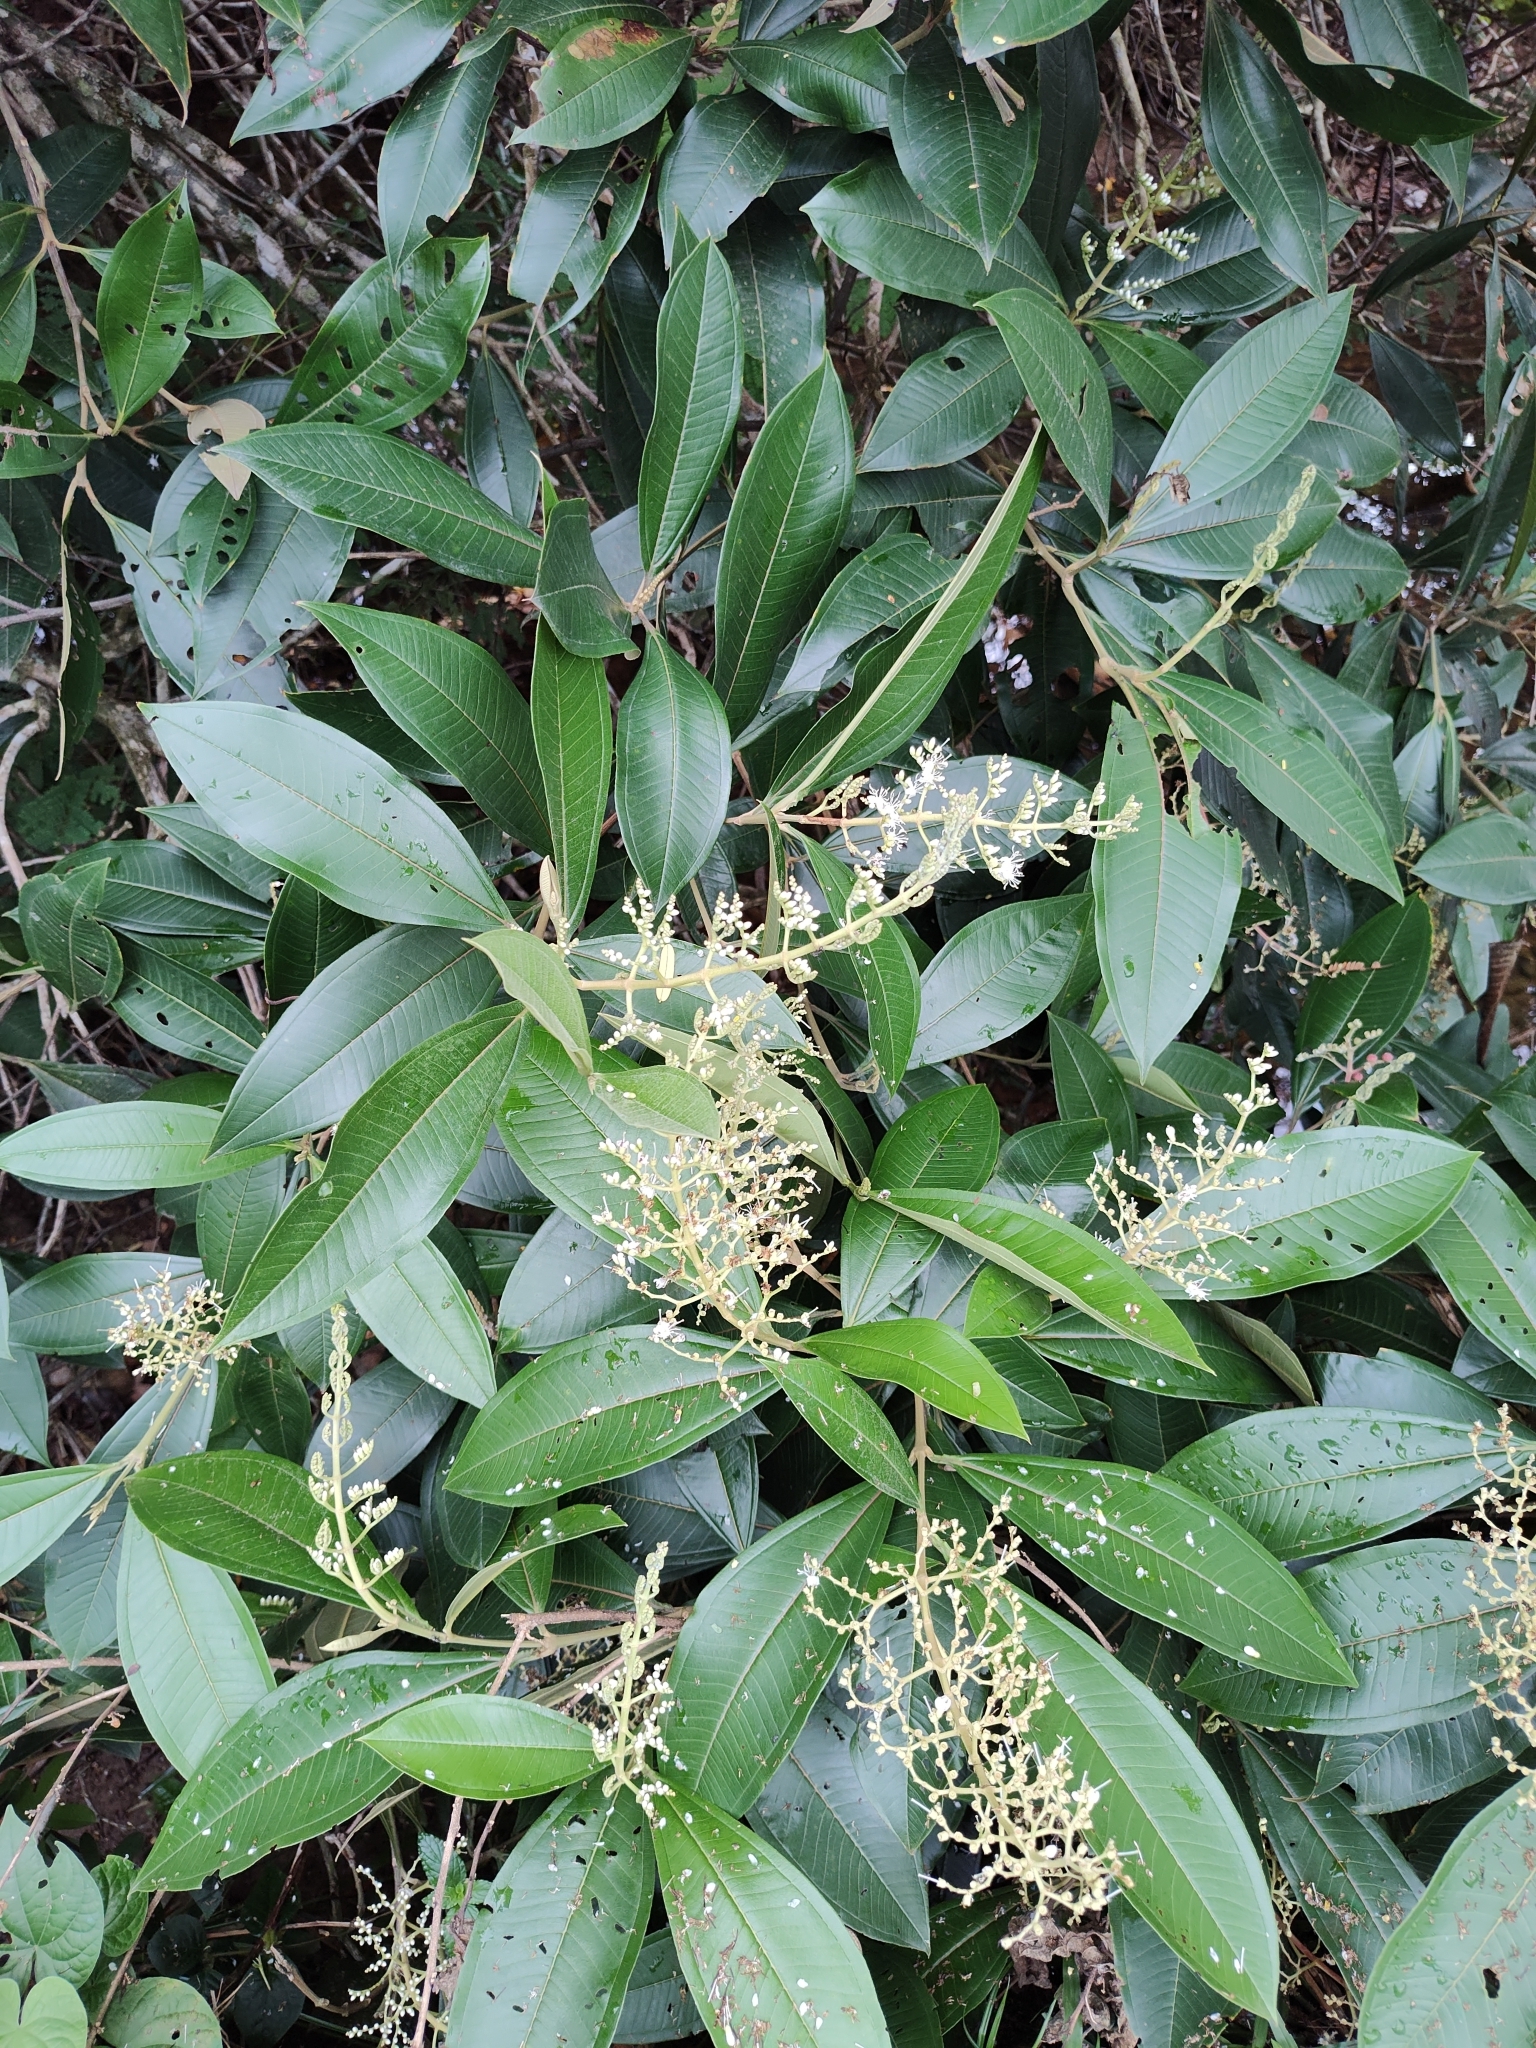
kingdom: Plantae
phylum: Tracheophyta
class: Magnoliopsida
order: Myrtales
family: Melastomataceae
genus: Miconia
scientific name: Miconia trinervia
